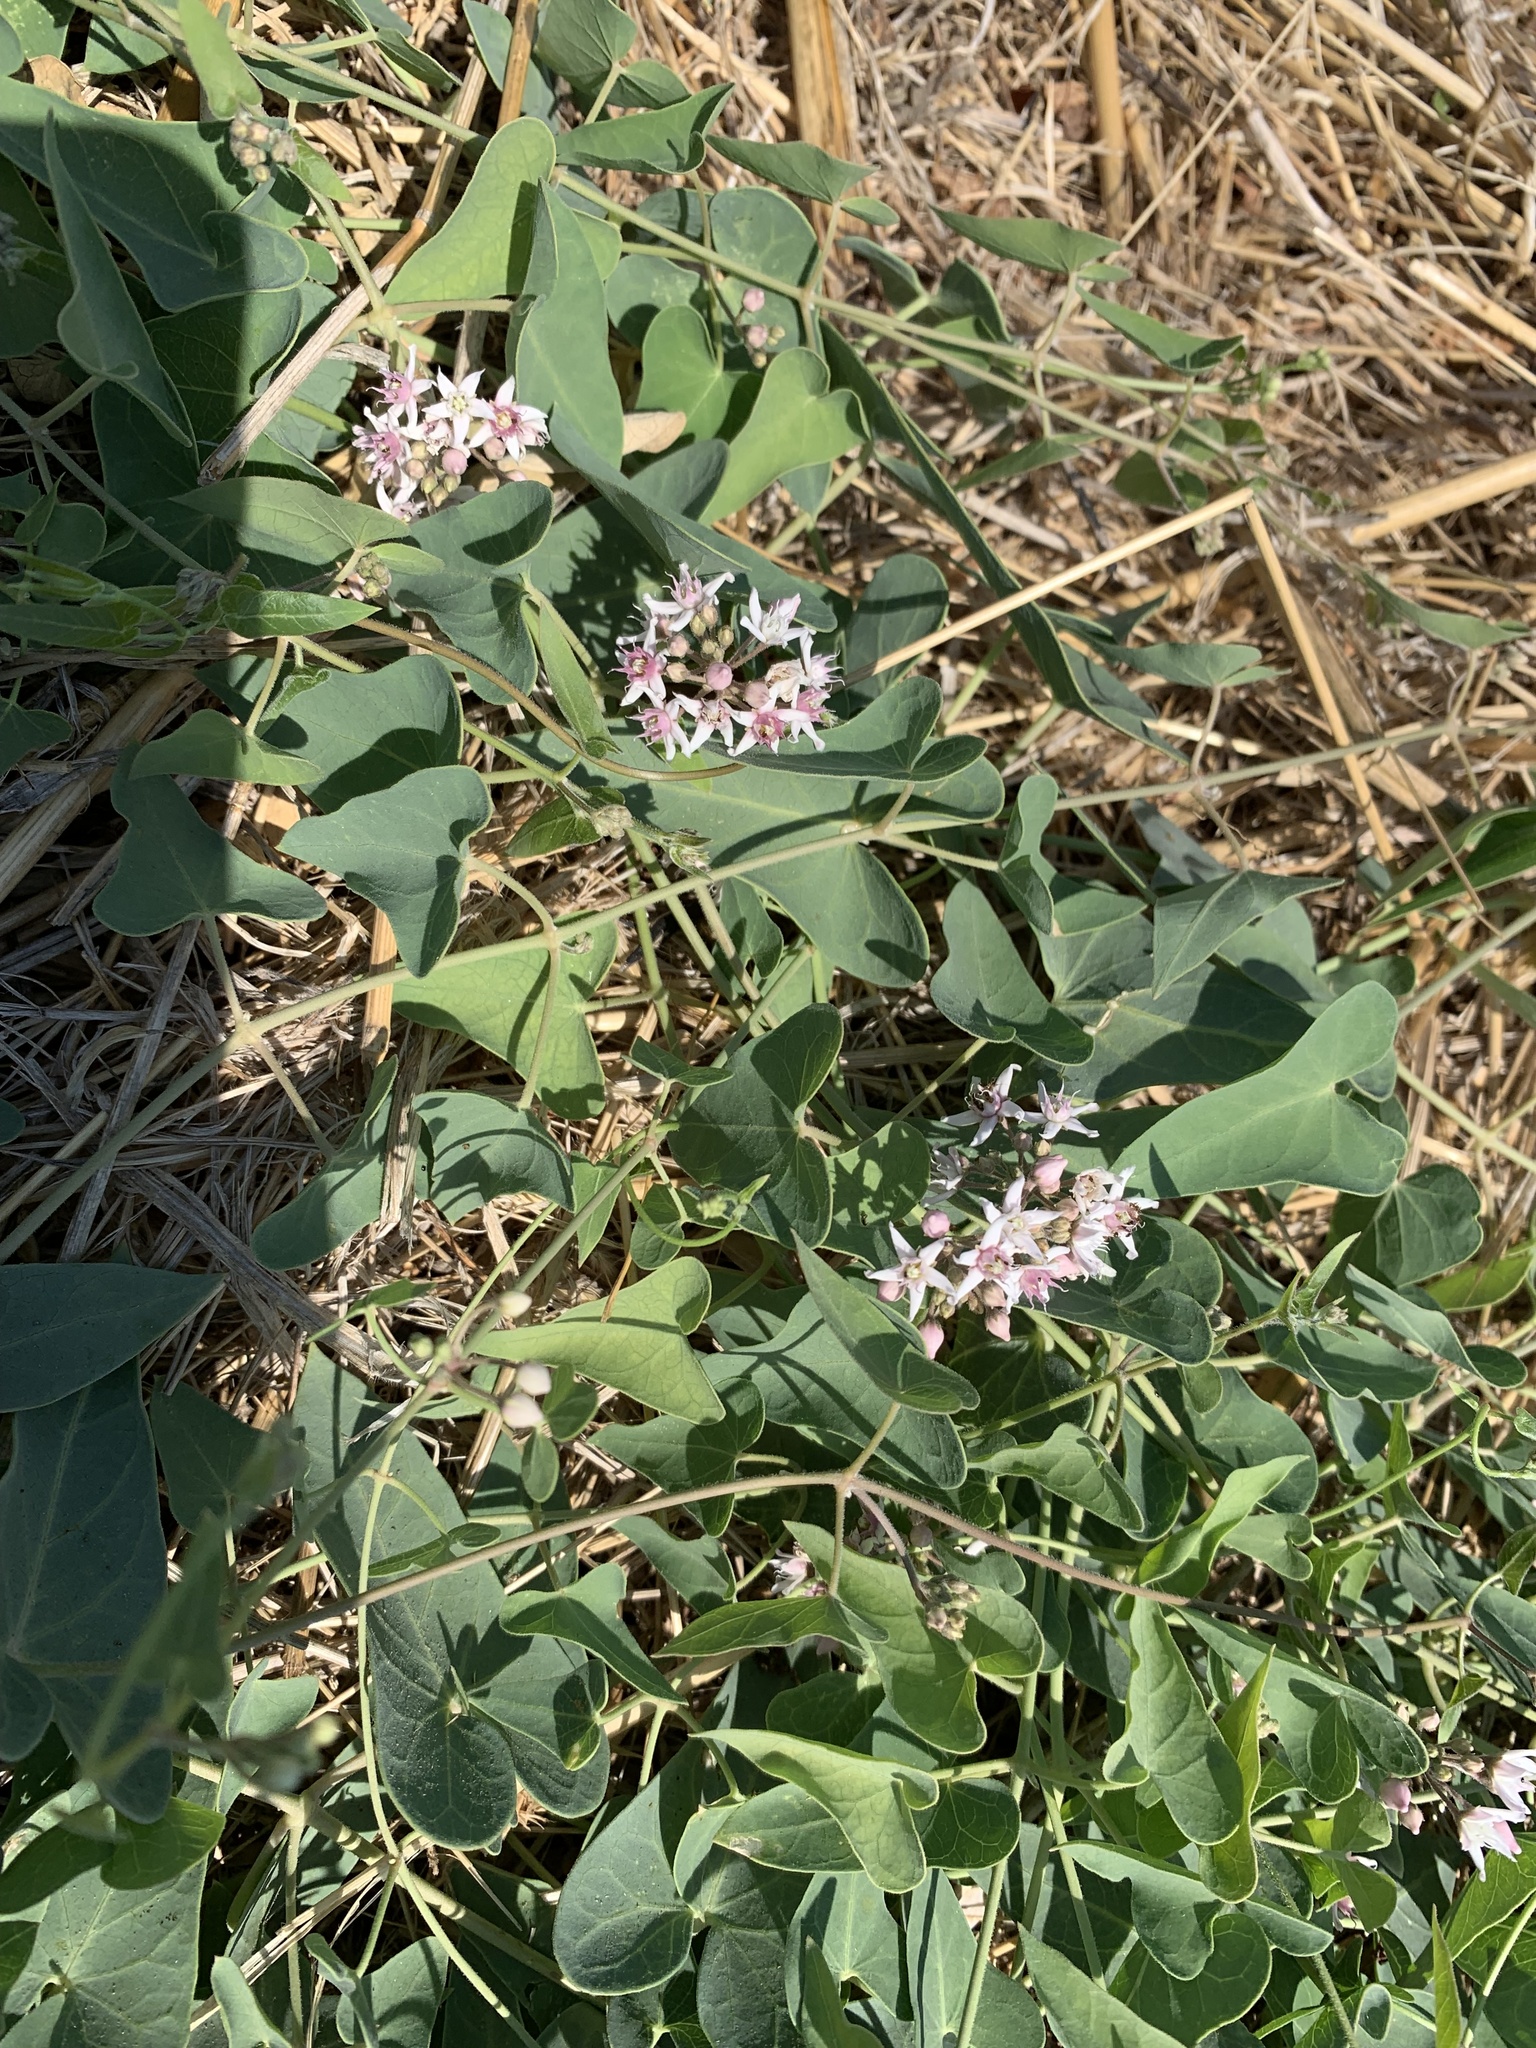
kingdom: Plantae
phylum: Tracheophyta
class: Magnoliopsida
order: Gentianales
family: Apocynaceae
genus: Cynanchum
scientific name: Cynanchum acutum
